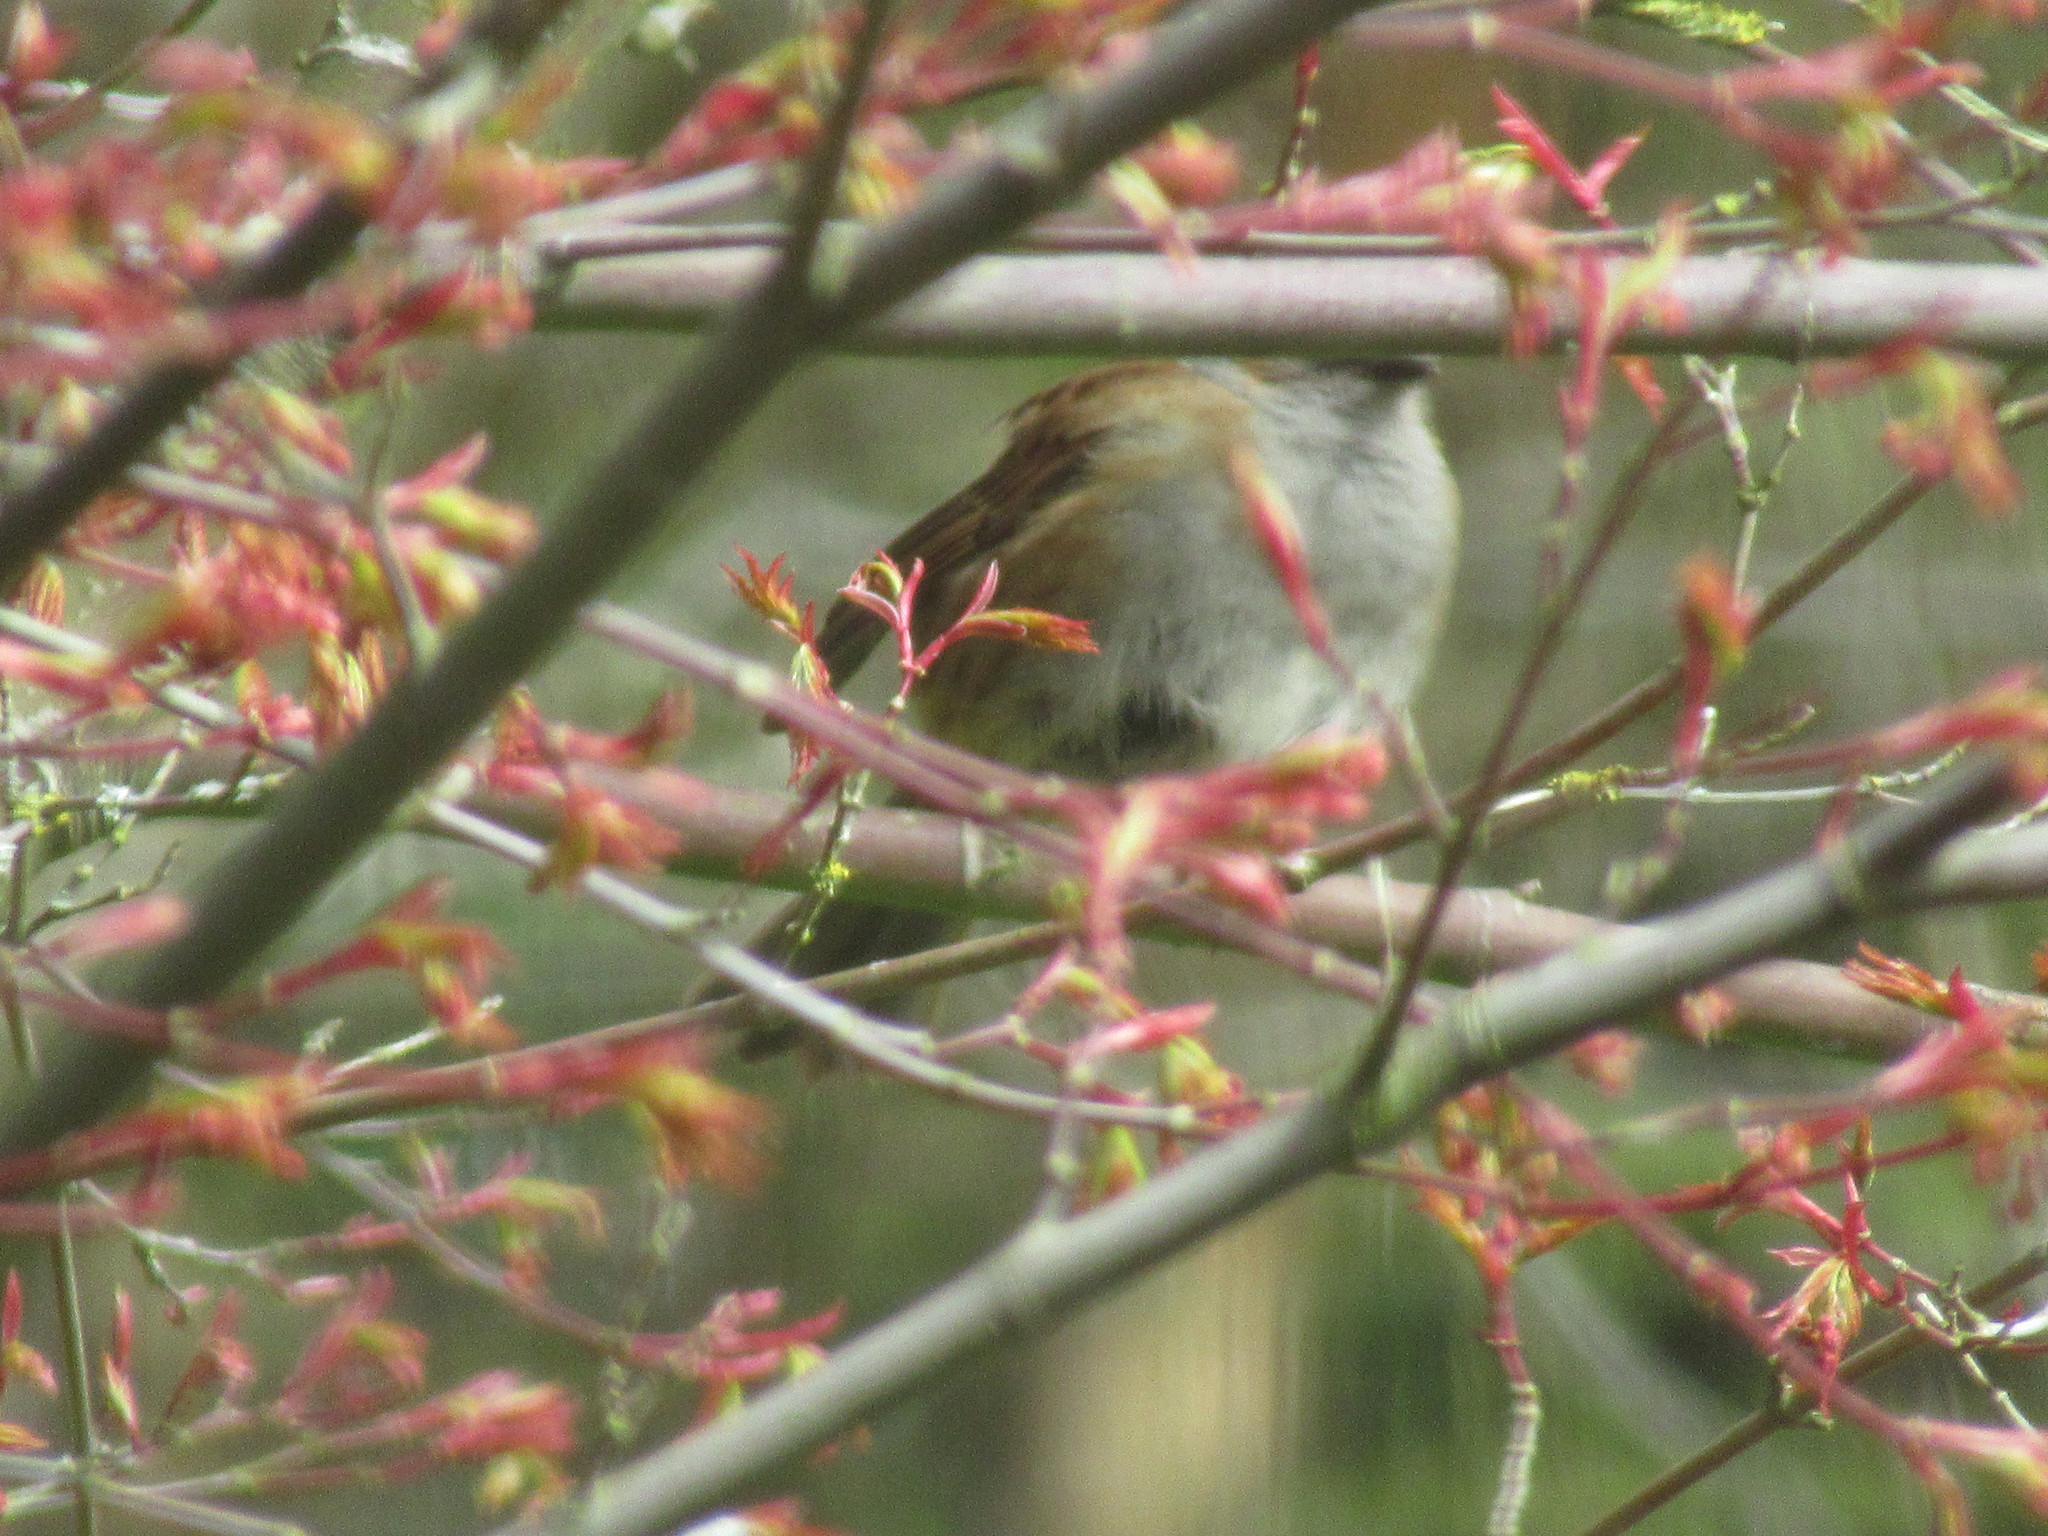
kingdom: Animalia
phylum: Chordata
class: Aves
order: Passeriformes
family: Prunellidae
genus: Prunella
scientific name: Prunella modularis
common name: Dunnock
